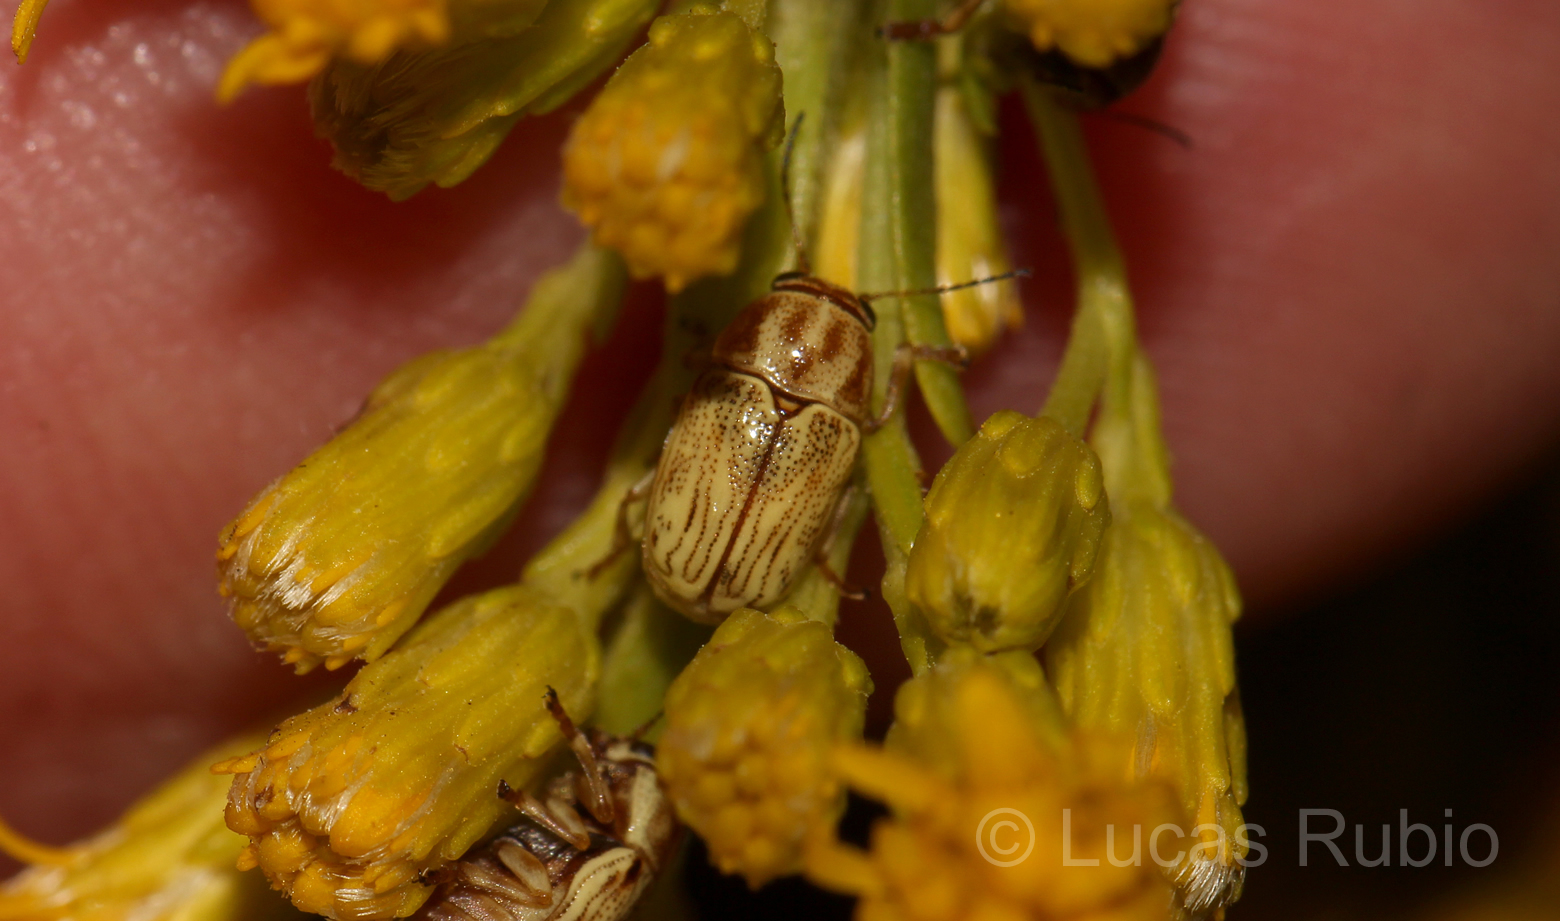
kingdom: Animalia
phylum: Arthropoda
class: Insecta
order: Coleoptera
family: Chrysomelidae
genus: Pachybrachis
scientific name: Pachybrachis
